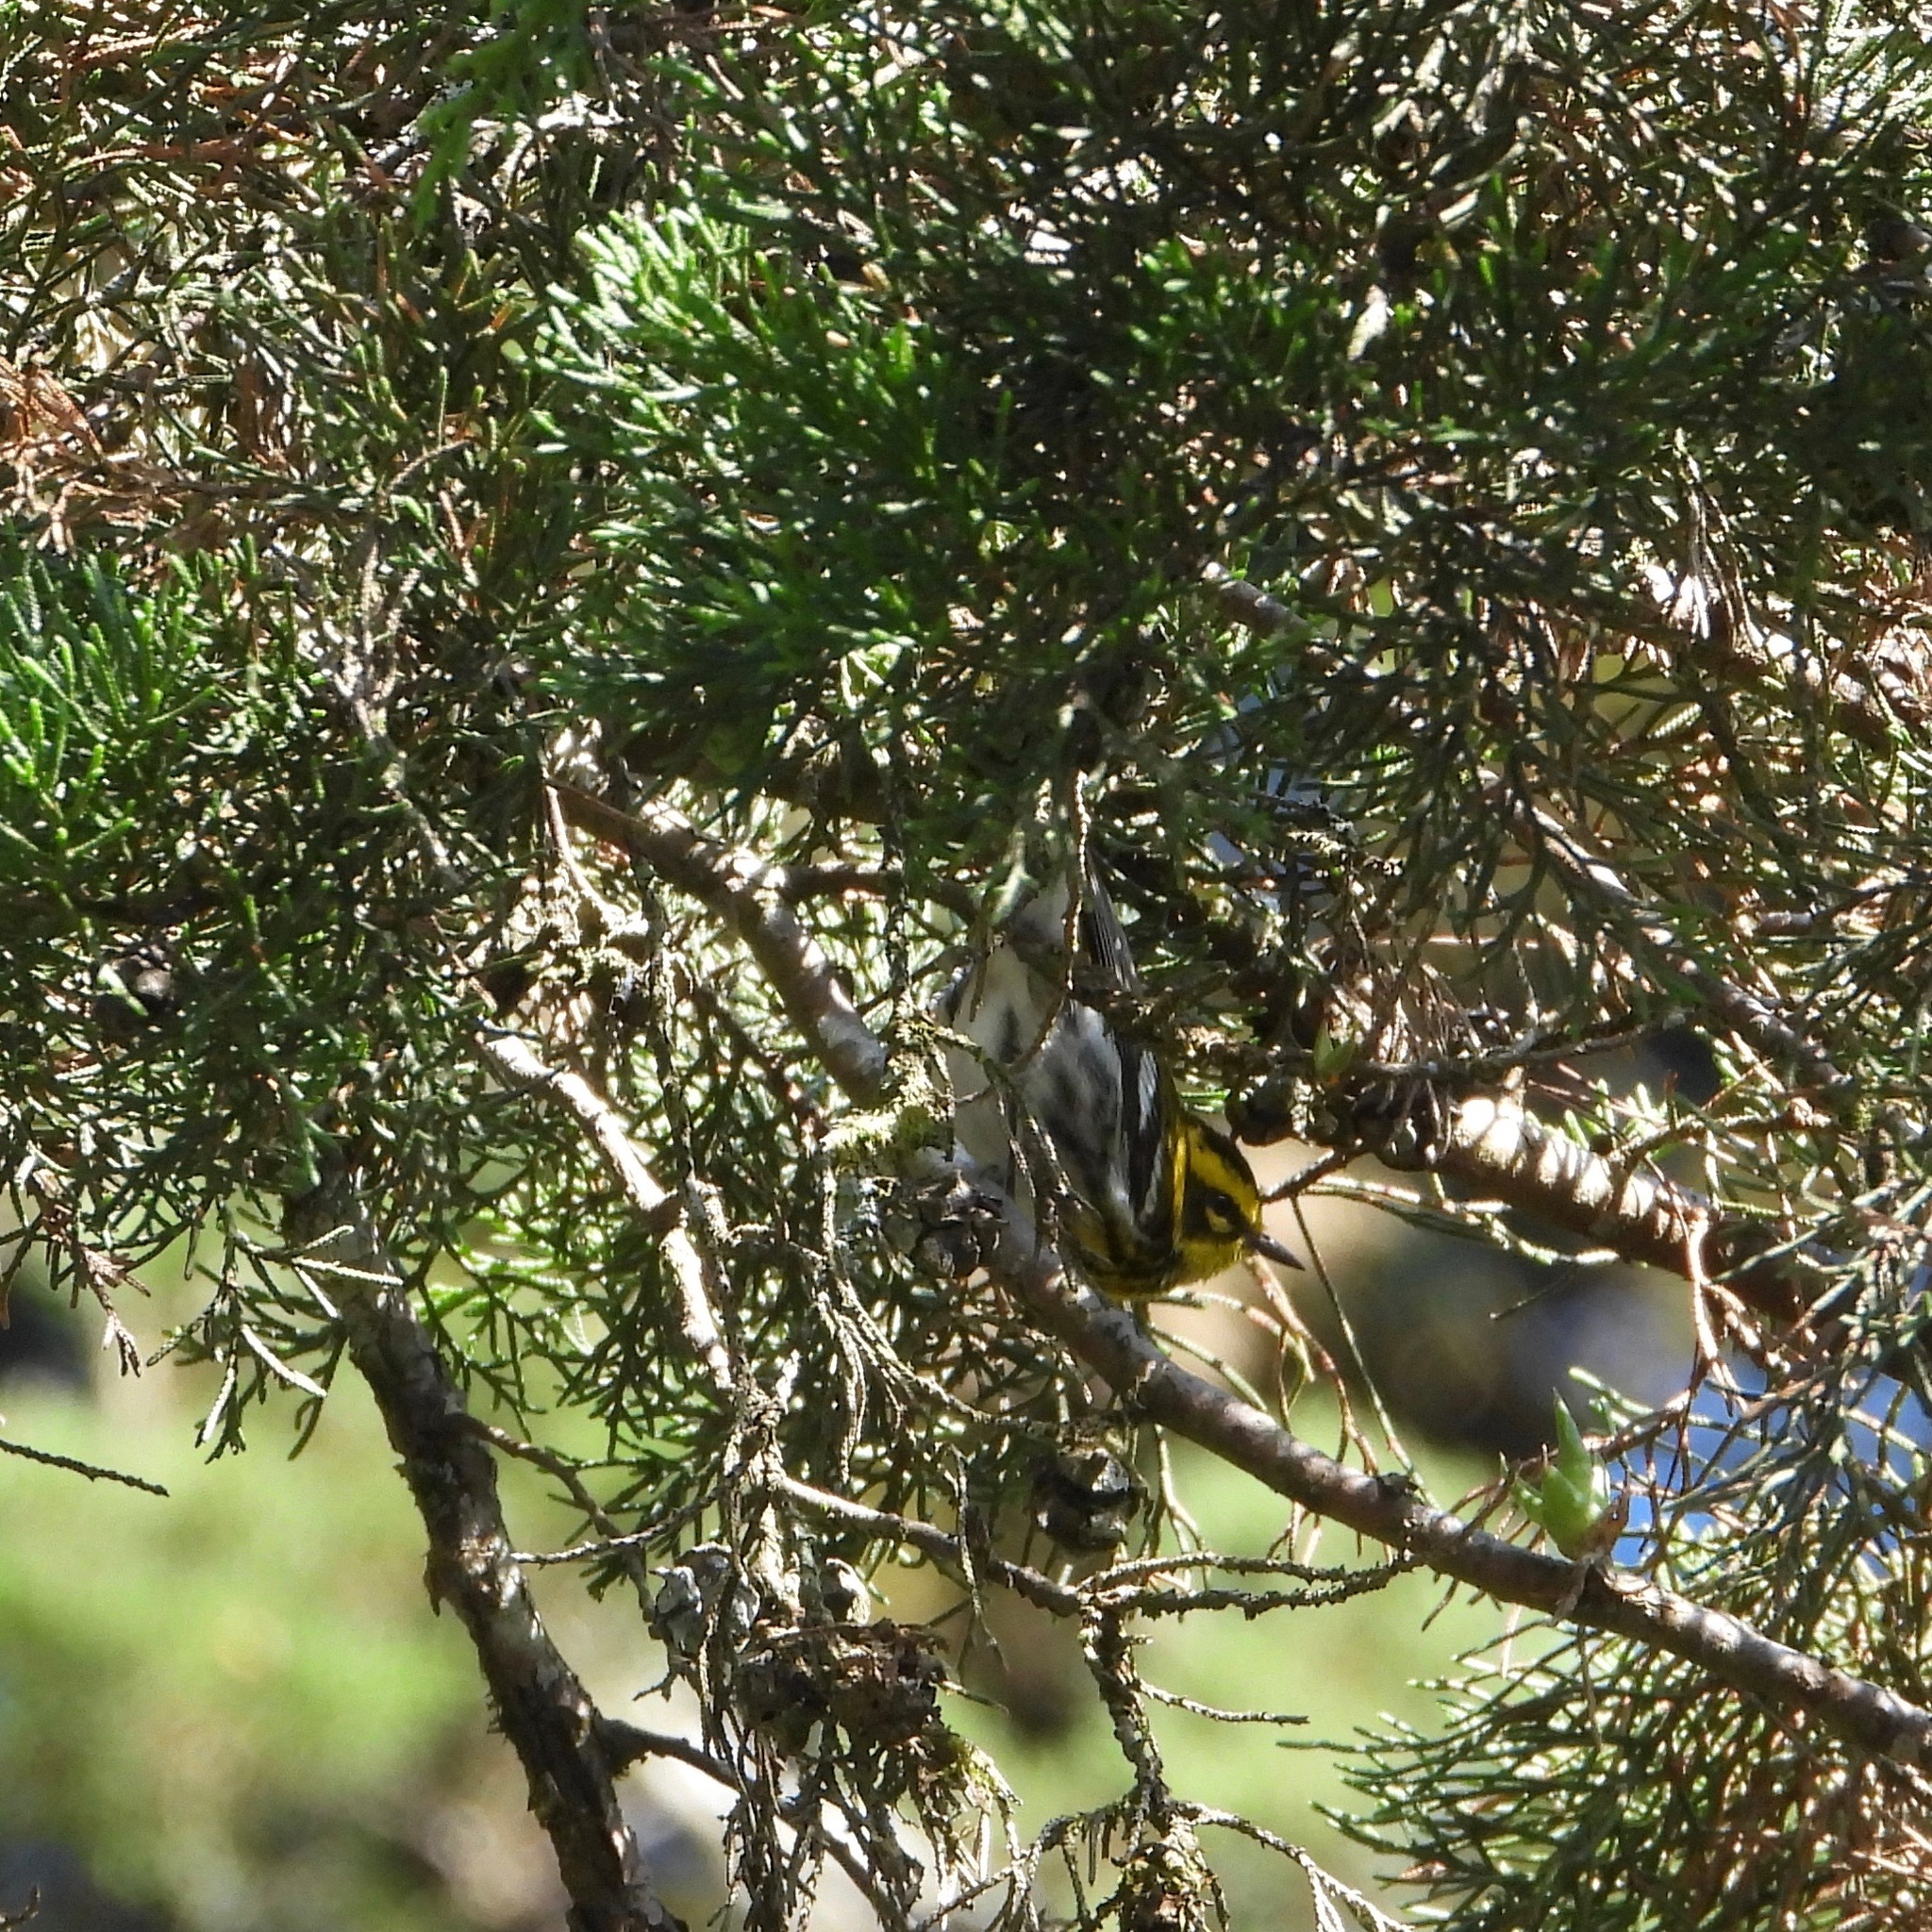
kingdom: Animalia
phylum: Chordata
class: Aves
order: Passeriformes
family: Parulidae
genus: Setophaga
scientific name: Setophaga townsendi
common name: Townsend's warbler
